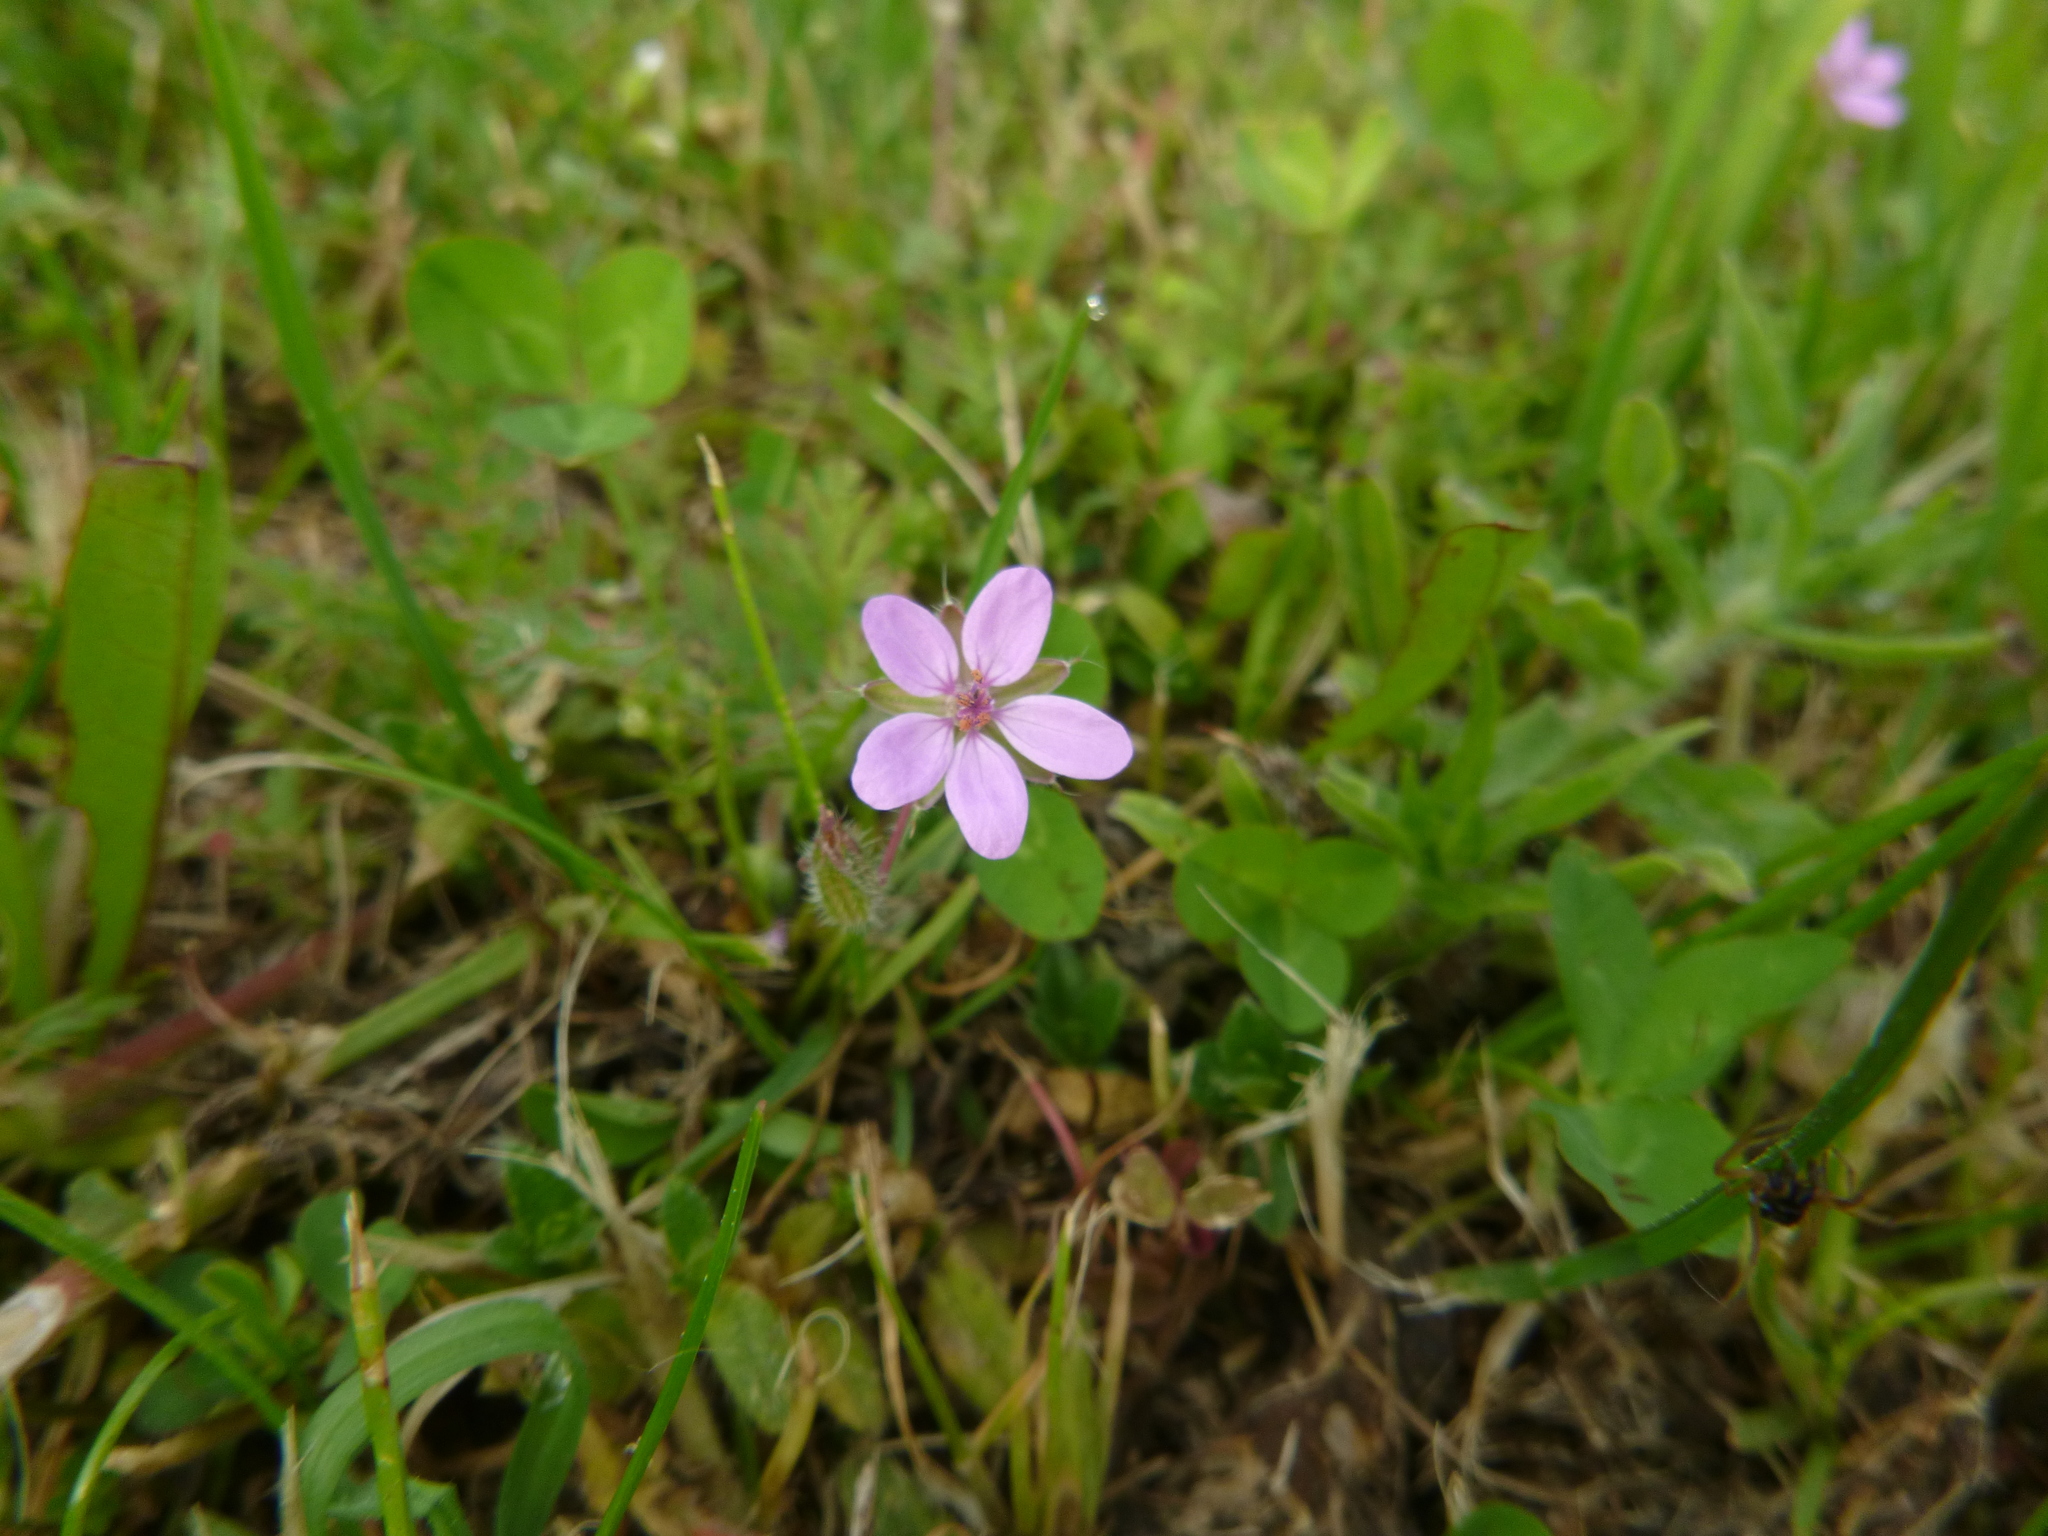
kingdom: Plantae
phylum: Tracheophyta
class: Magnoliopsida
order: Geraniales
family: Geraniaceae
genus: Erodium
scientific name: Erodium cicutarium
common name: Common stork's-bill
